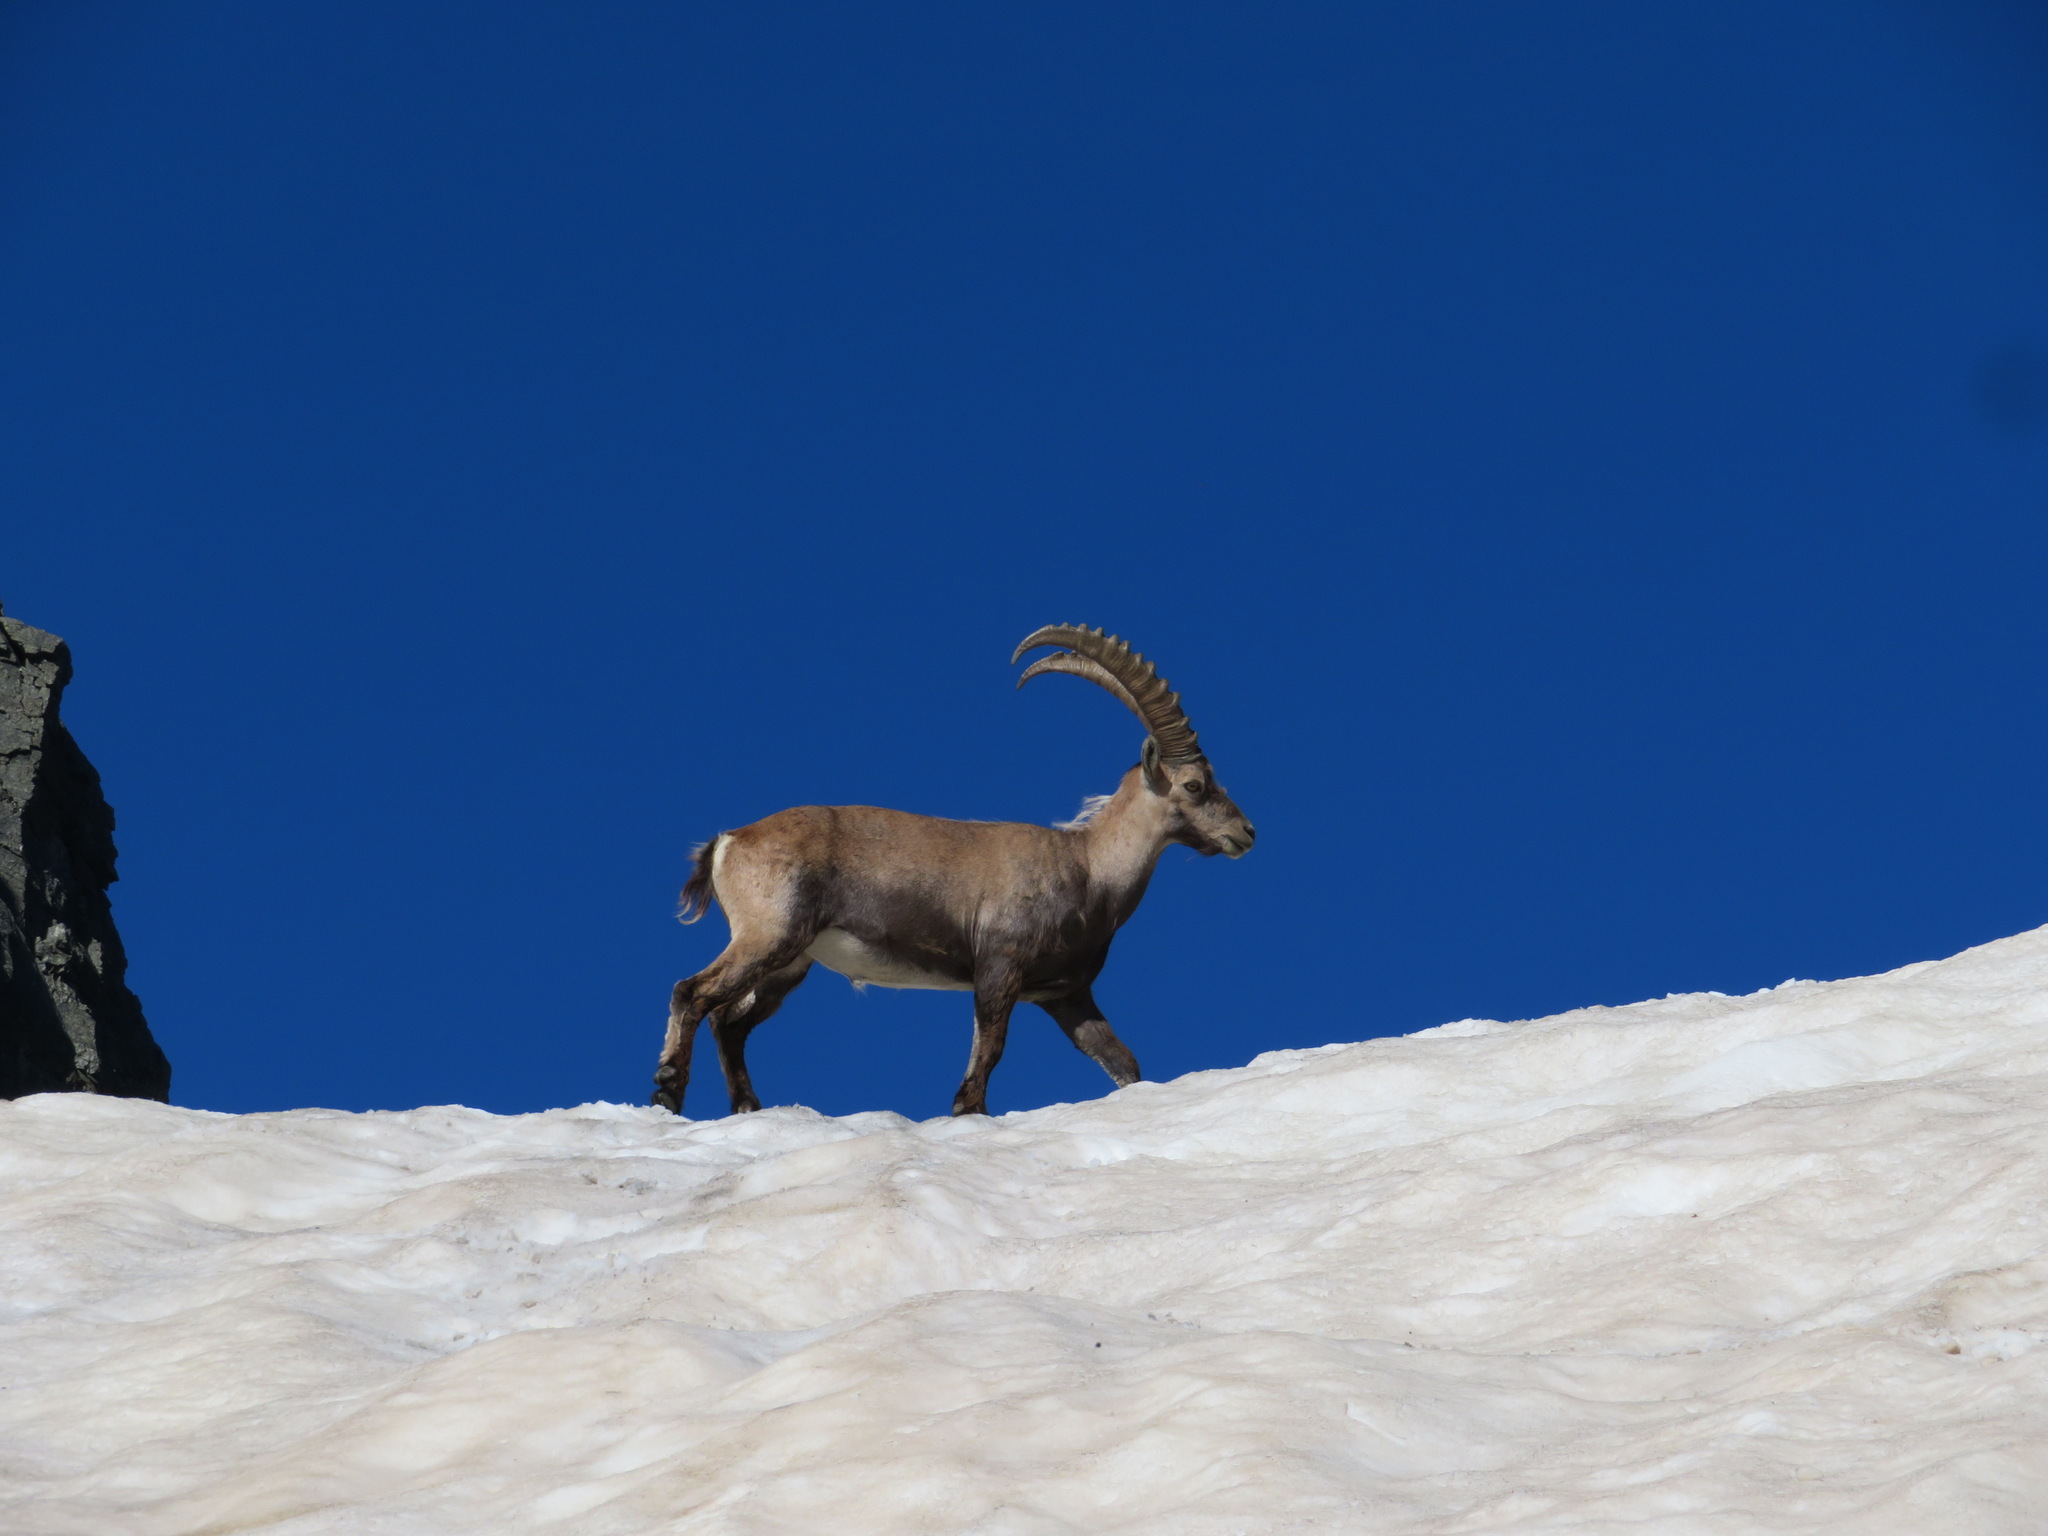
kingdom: Animalia
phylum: Chordata
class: Mammalia
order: Artiodactyla
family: Bovidae
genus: Capra
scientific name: Capra ibex
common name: Alpine ibex
